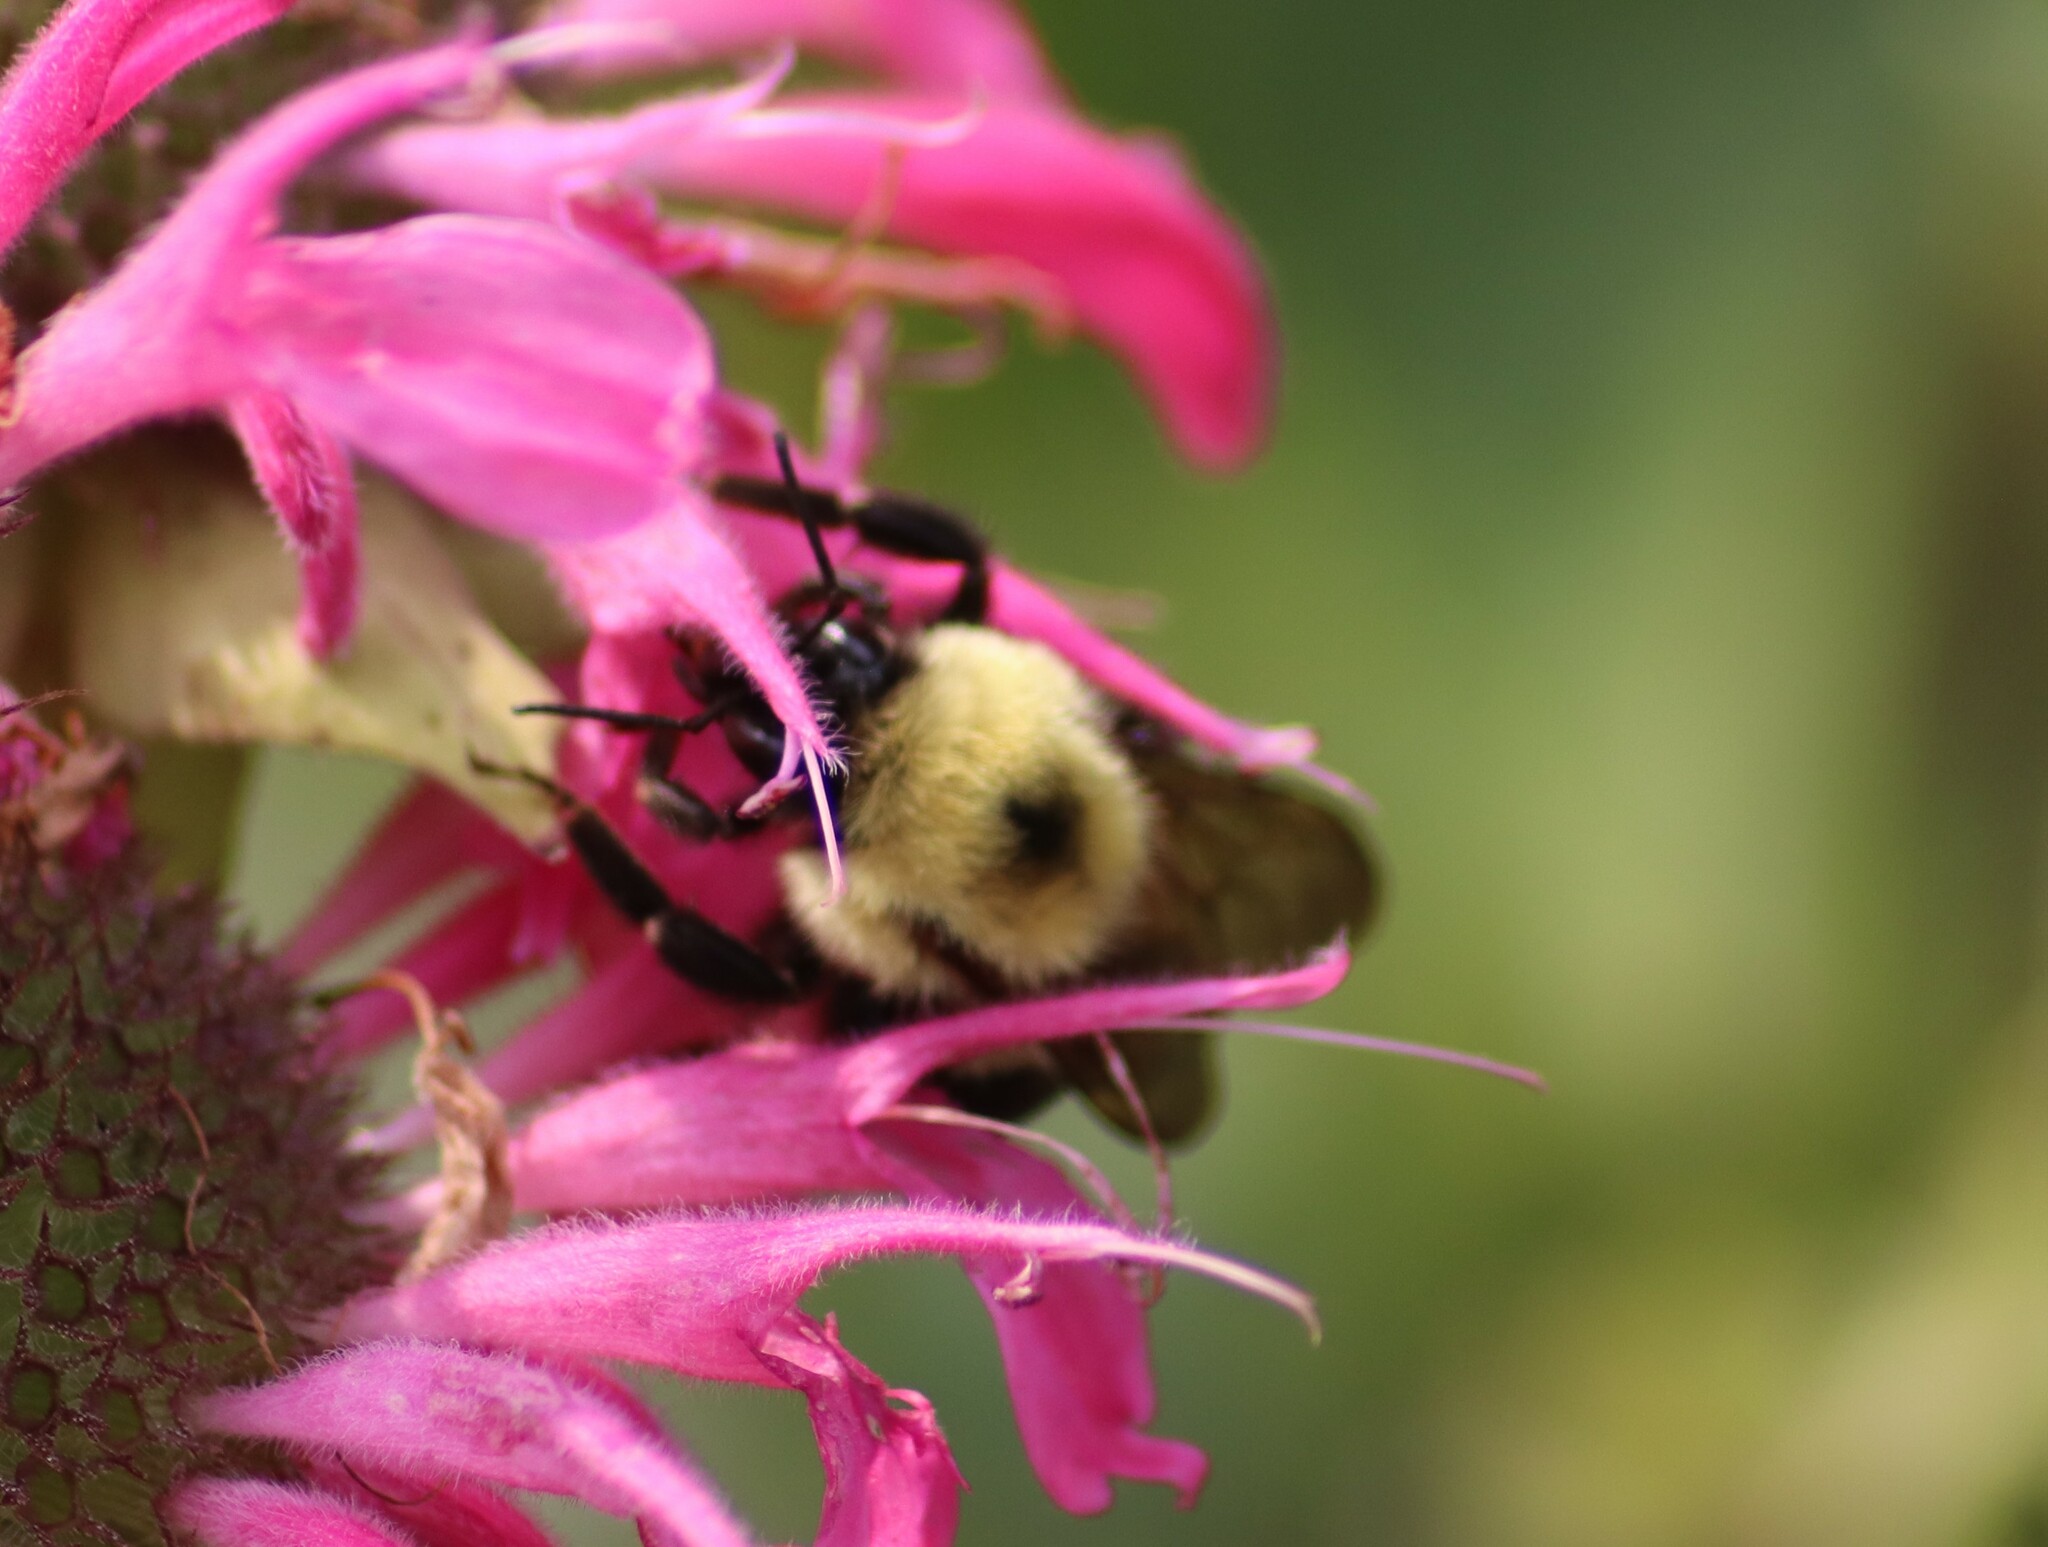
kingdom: Animalia
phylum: Arthropoda
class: Insecta
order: Hymenoptera
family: Apidae
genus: Bombus
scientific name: Bombus bimaculatus
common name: Two-spotted bumble bee
